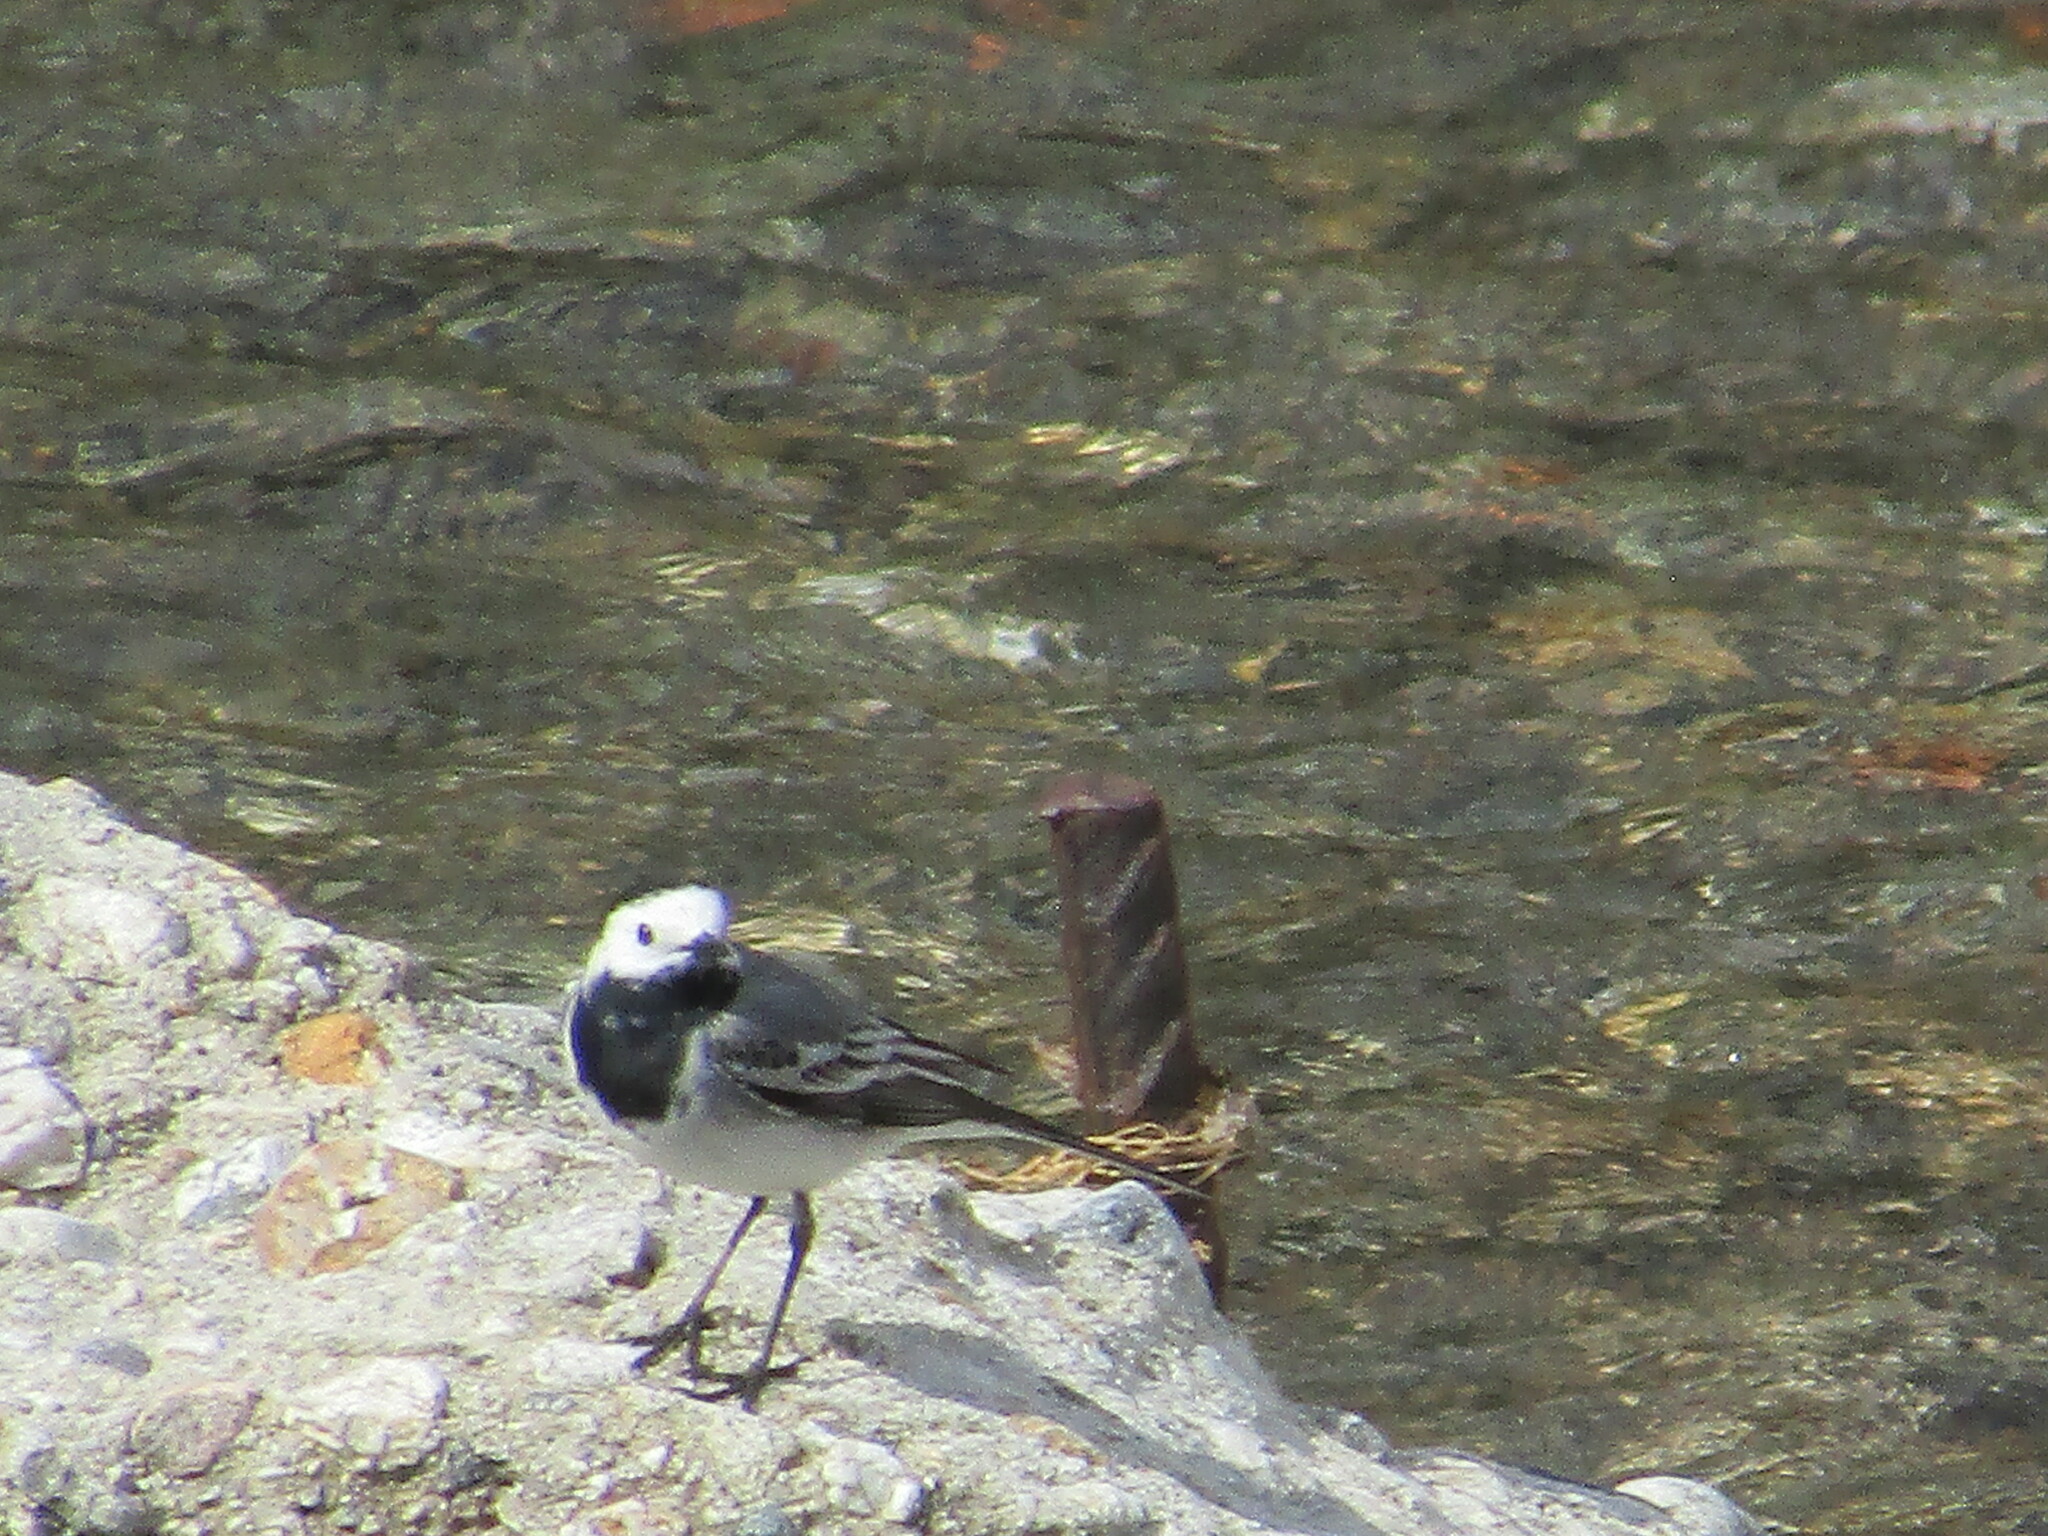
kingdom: Animalia
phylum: Chordata
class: Aves
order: Passeriformes
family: Motacillidae
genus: Motacilla
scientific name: Motacilla alba
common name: White wagtail
